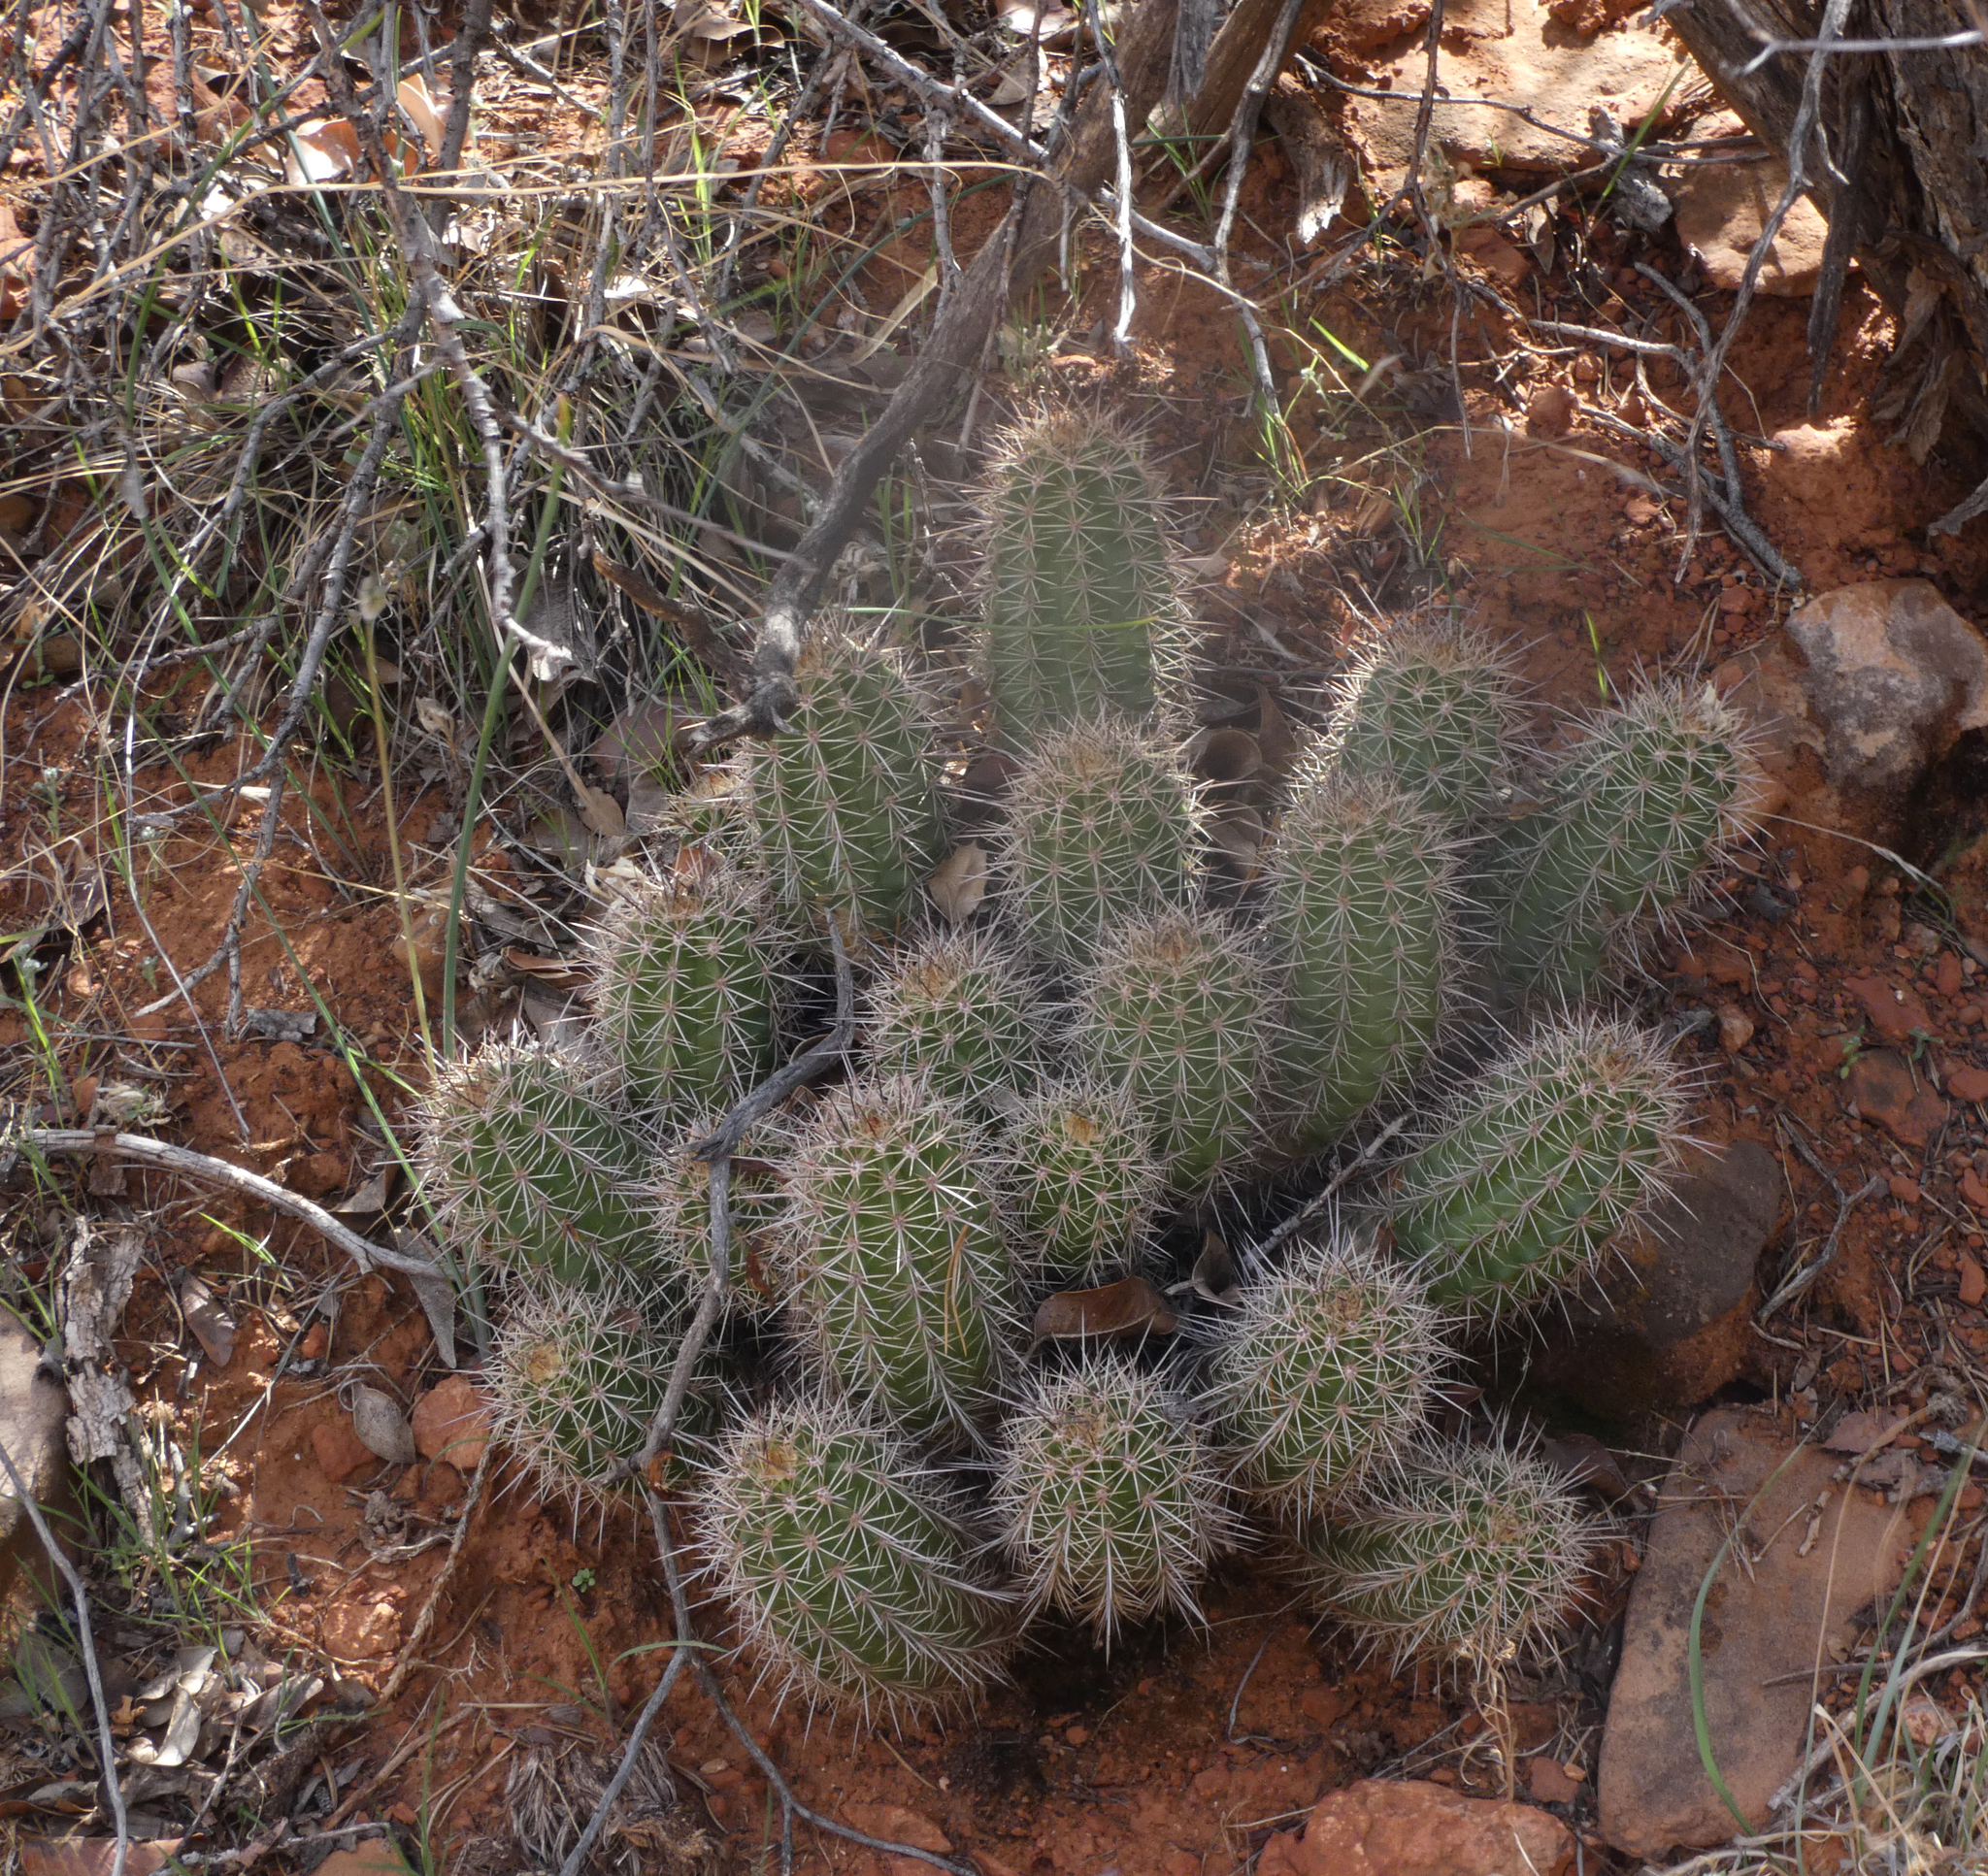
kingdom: Plantae
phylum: Tracheophyta
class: Magnoliopsida
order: Caryophyllales
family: Cactaceae
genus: Echinocereus
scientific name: Echinocereus bakeri
